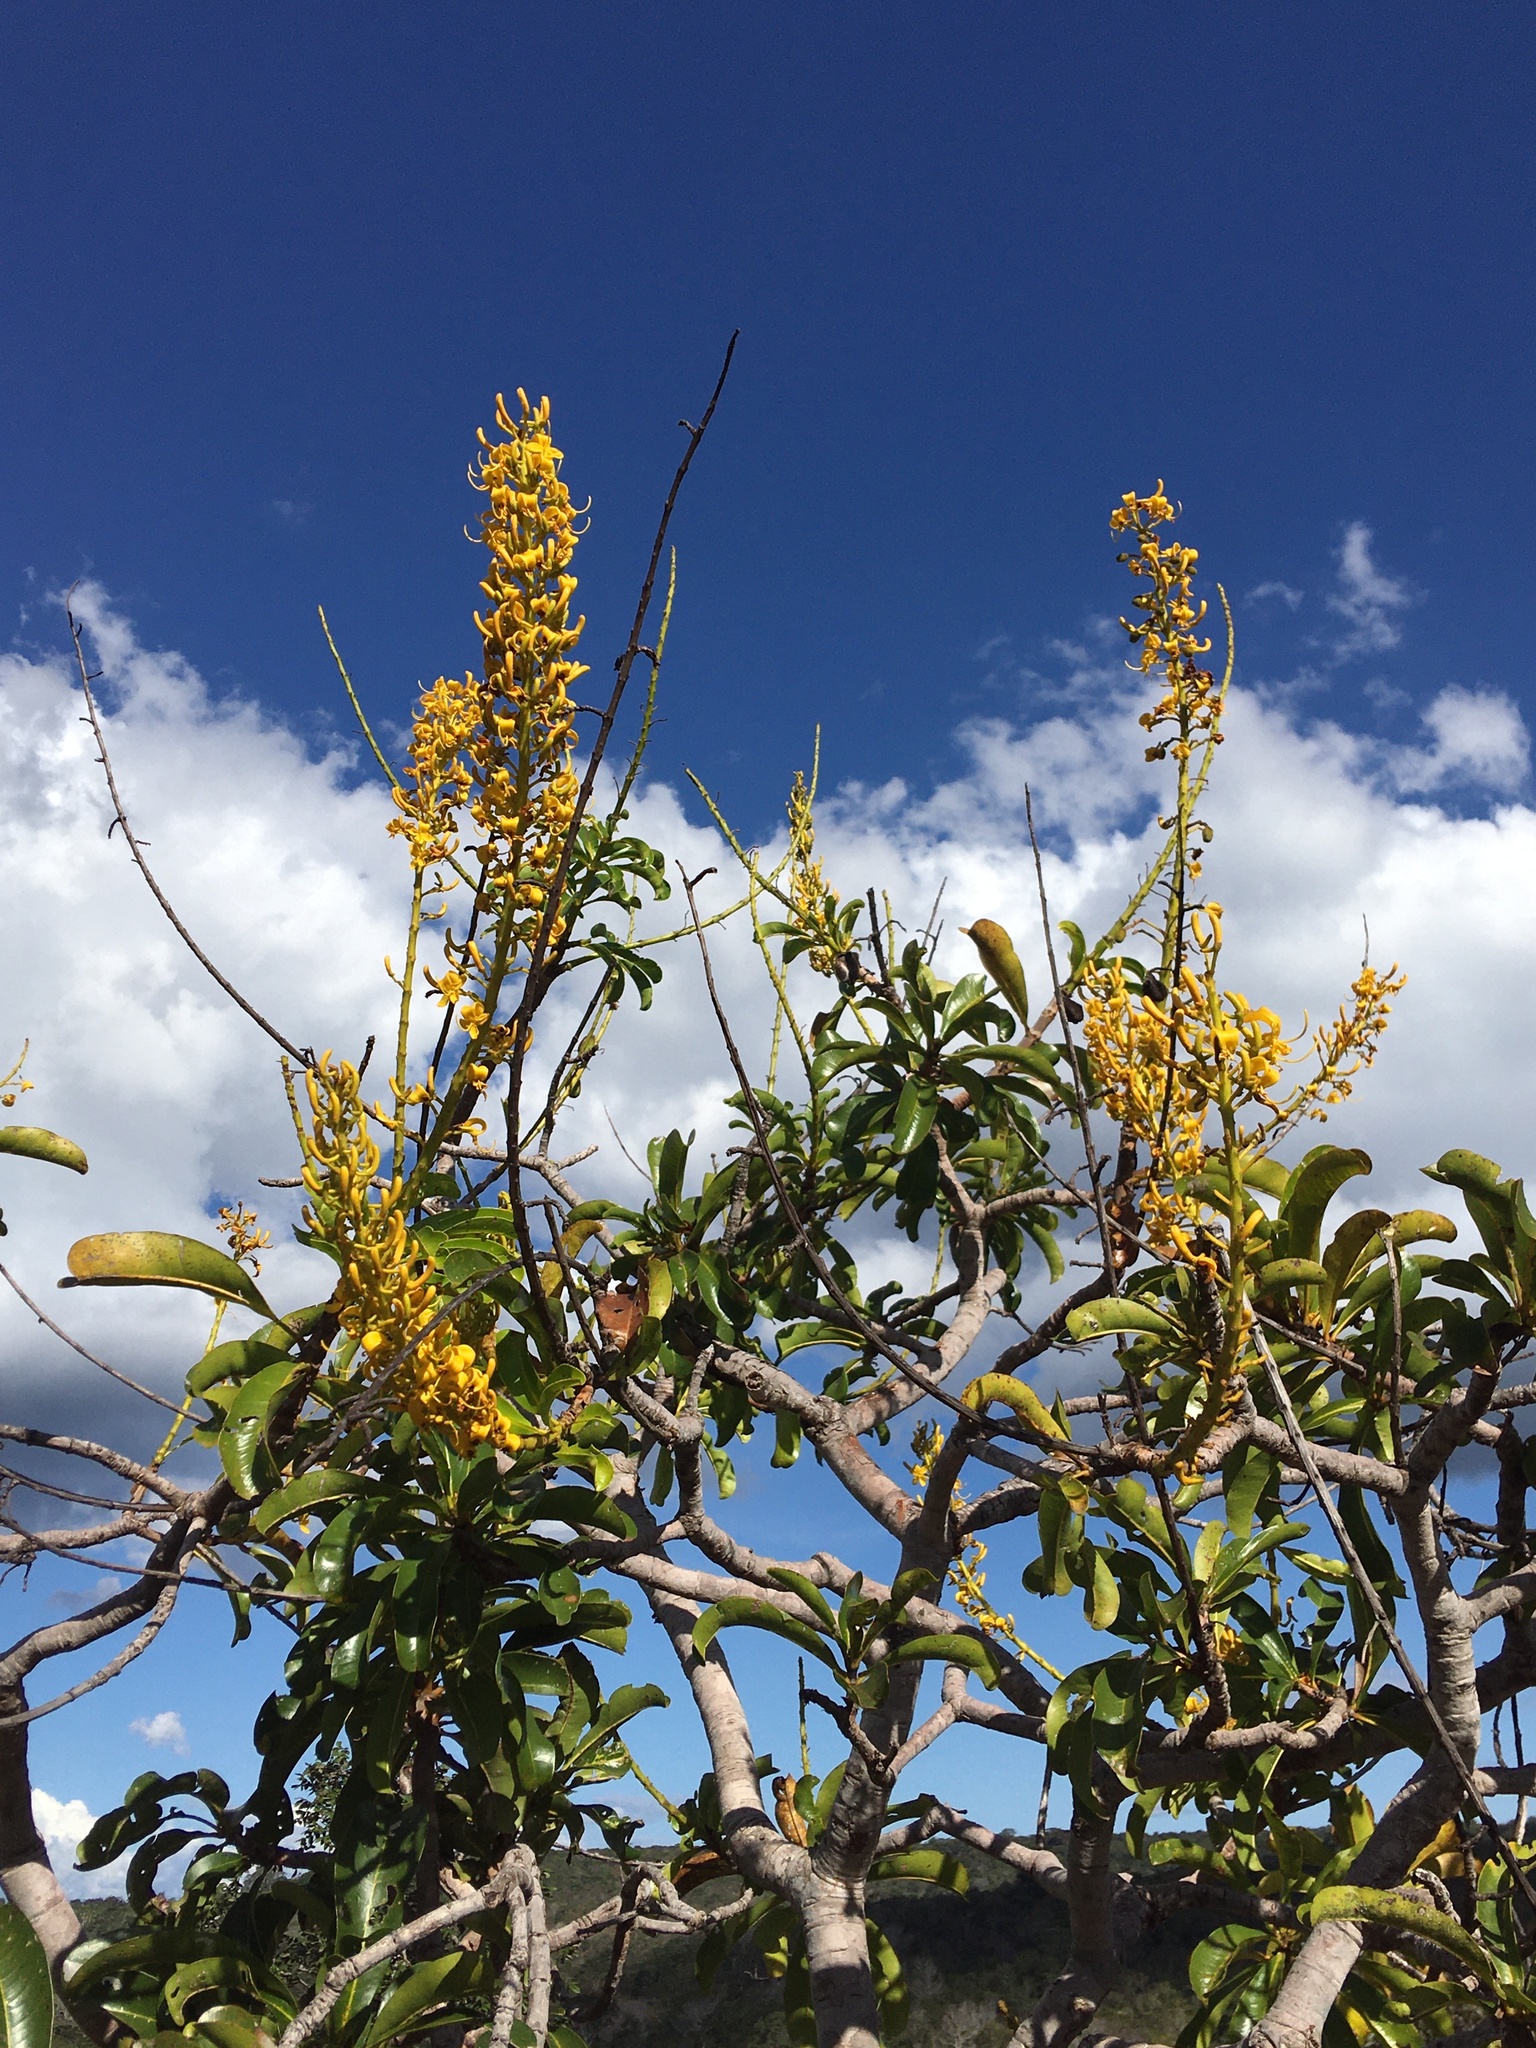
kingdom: Plantae
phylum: Tracheophyta
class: Magnoliopsida
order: Myrtales
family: Vochysiaceae
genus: Vochysia
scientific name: Vochysia rufa
